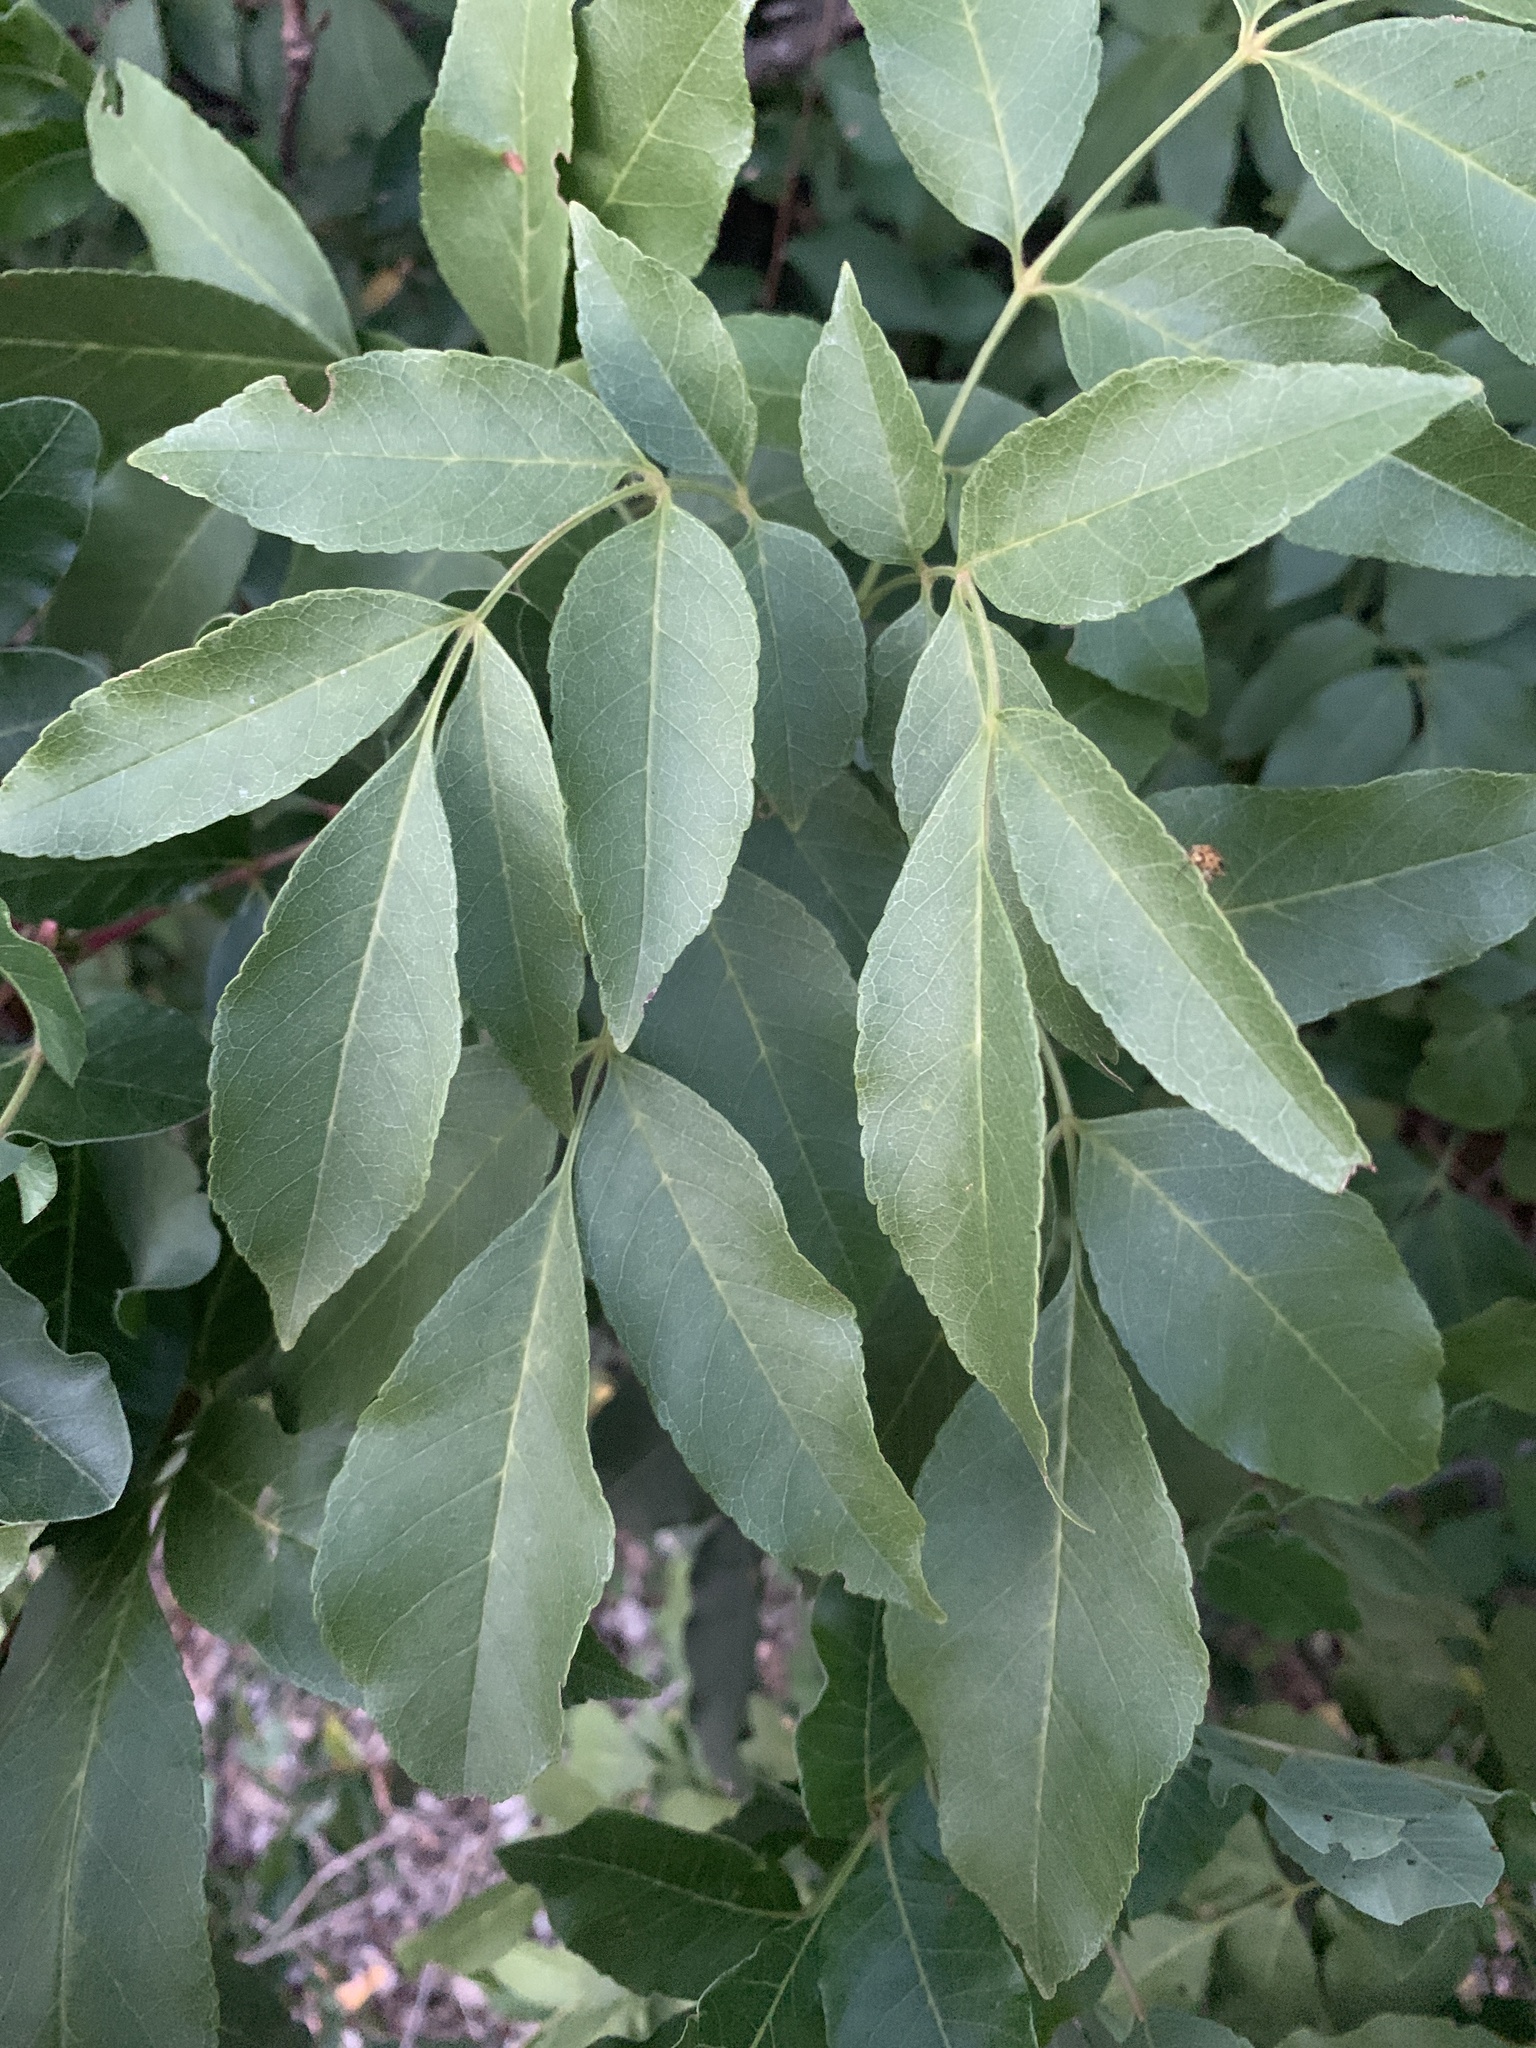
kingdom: Plantae
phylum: Tracheophyta
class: Magnoliopsida
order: Lamiales
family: Oleaceae
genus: Fraxinus
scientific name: Fraxinus ornus
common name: Manna ash
